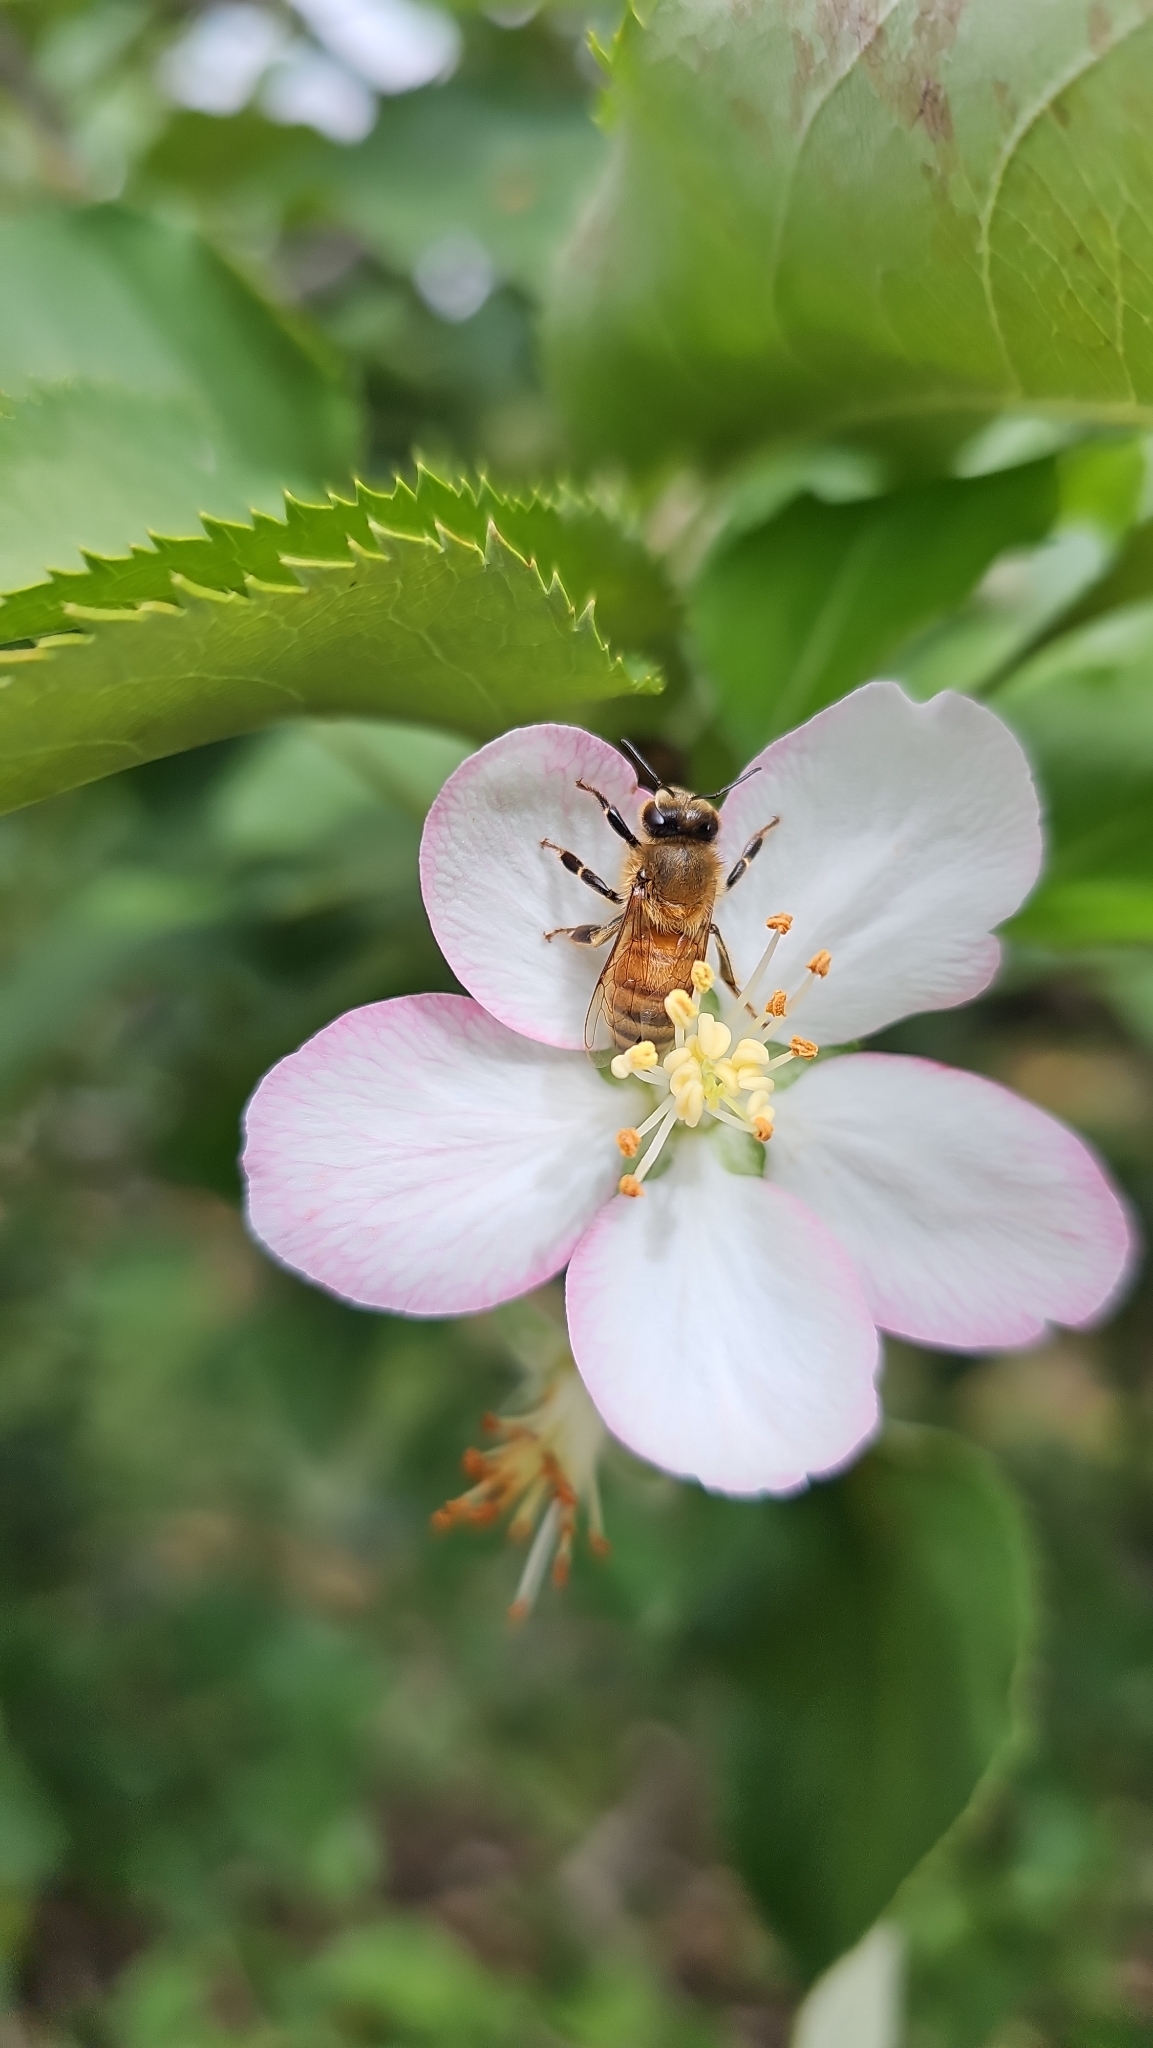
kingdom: Animalia
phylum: Arthropoda
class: Insecta
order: Hymenoptera
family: Apidae
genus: Apis
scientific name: Apis mellifera
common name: Honey bee
